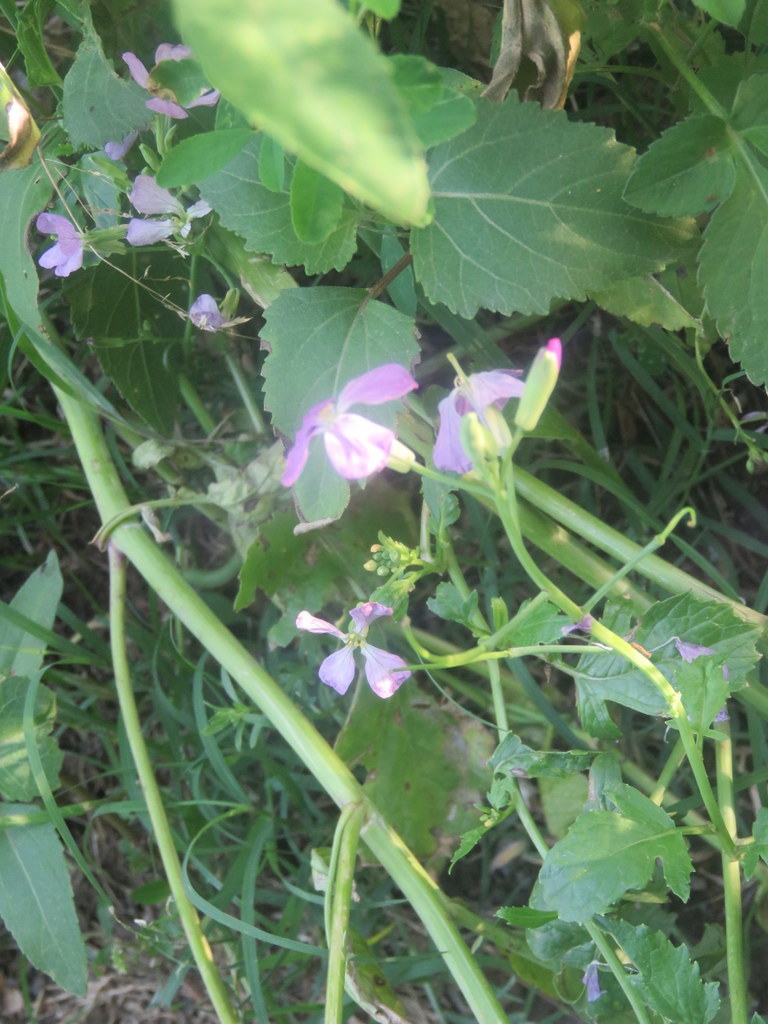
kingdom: Plantae
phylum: Tracheophyta
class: Magnoliopsida
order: Brassicales
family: Brassicaceae
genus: Raphanus
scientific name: Raphanus sativus
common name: Cultivated radish
